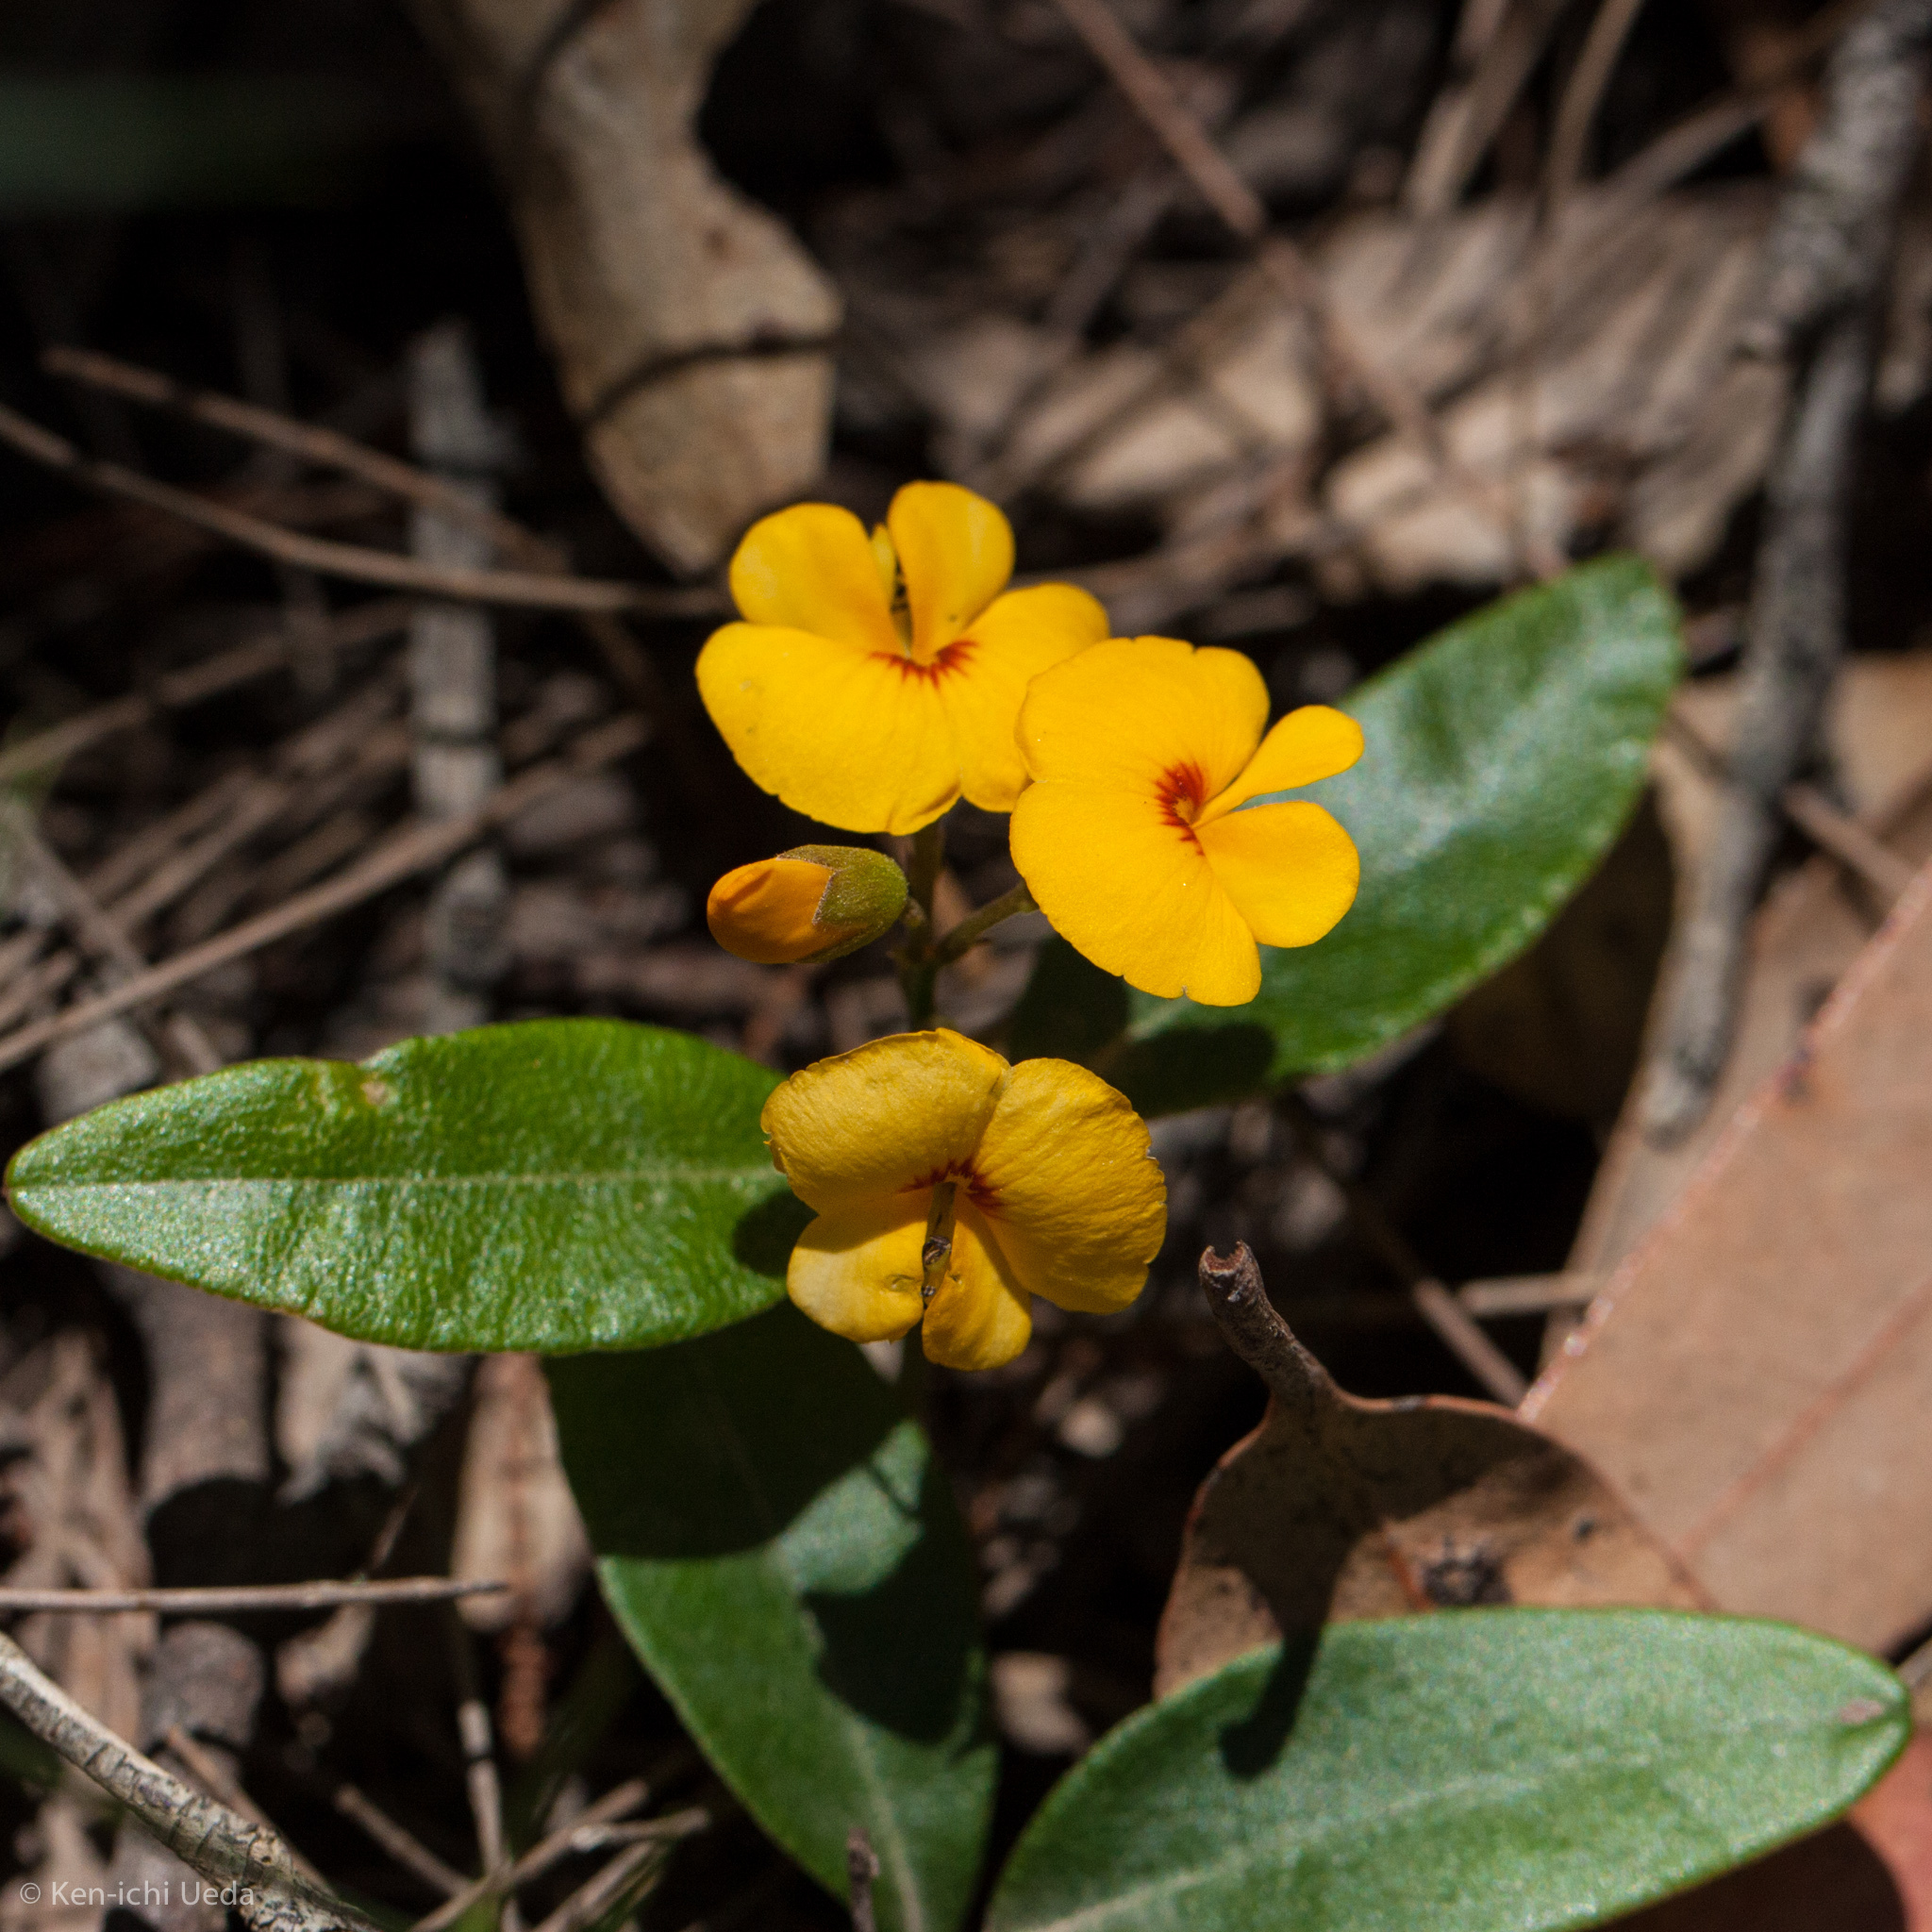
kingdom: Plantae
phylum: Tracheophyta
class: Magnoliopsida
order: Fabales
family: Fabaceae
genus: Platylobium
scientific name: Platylobium formosum
